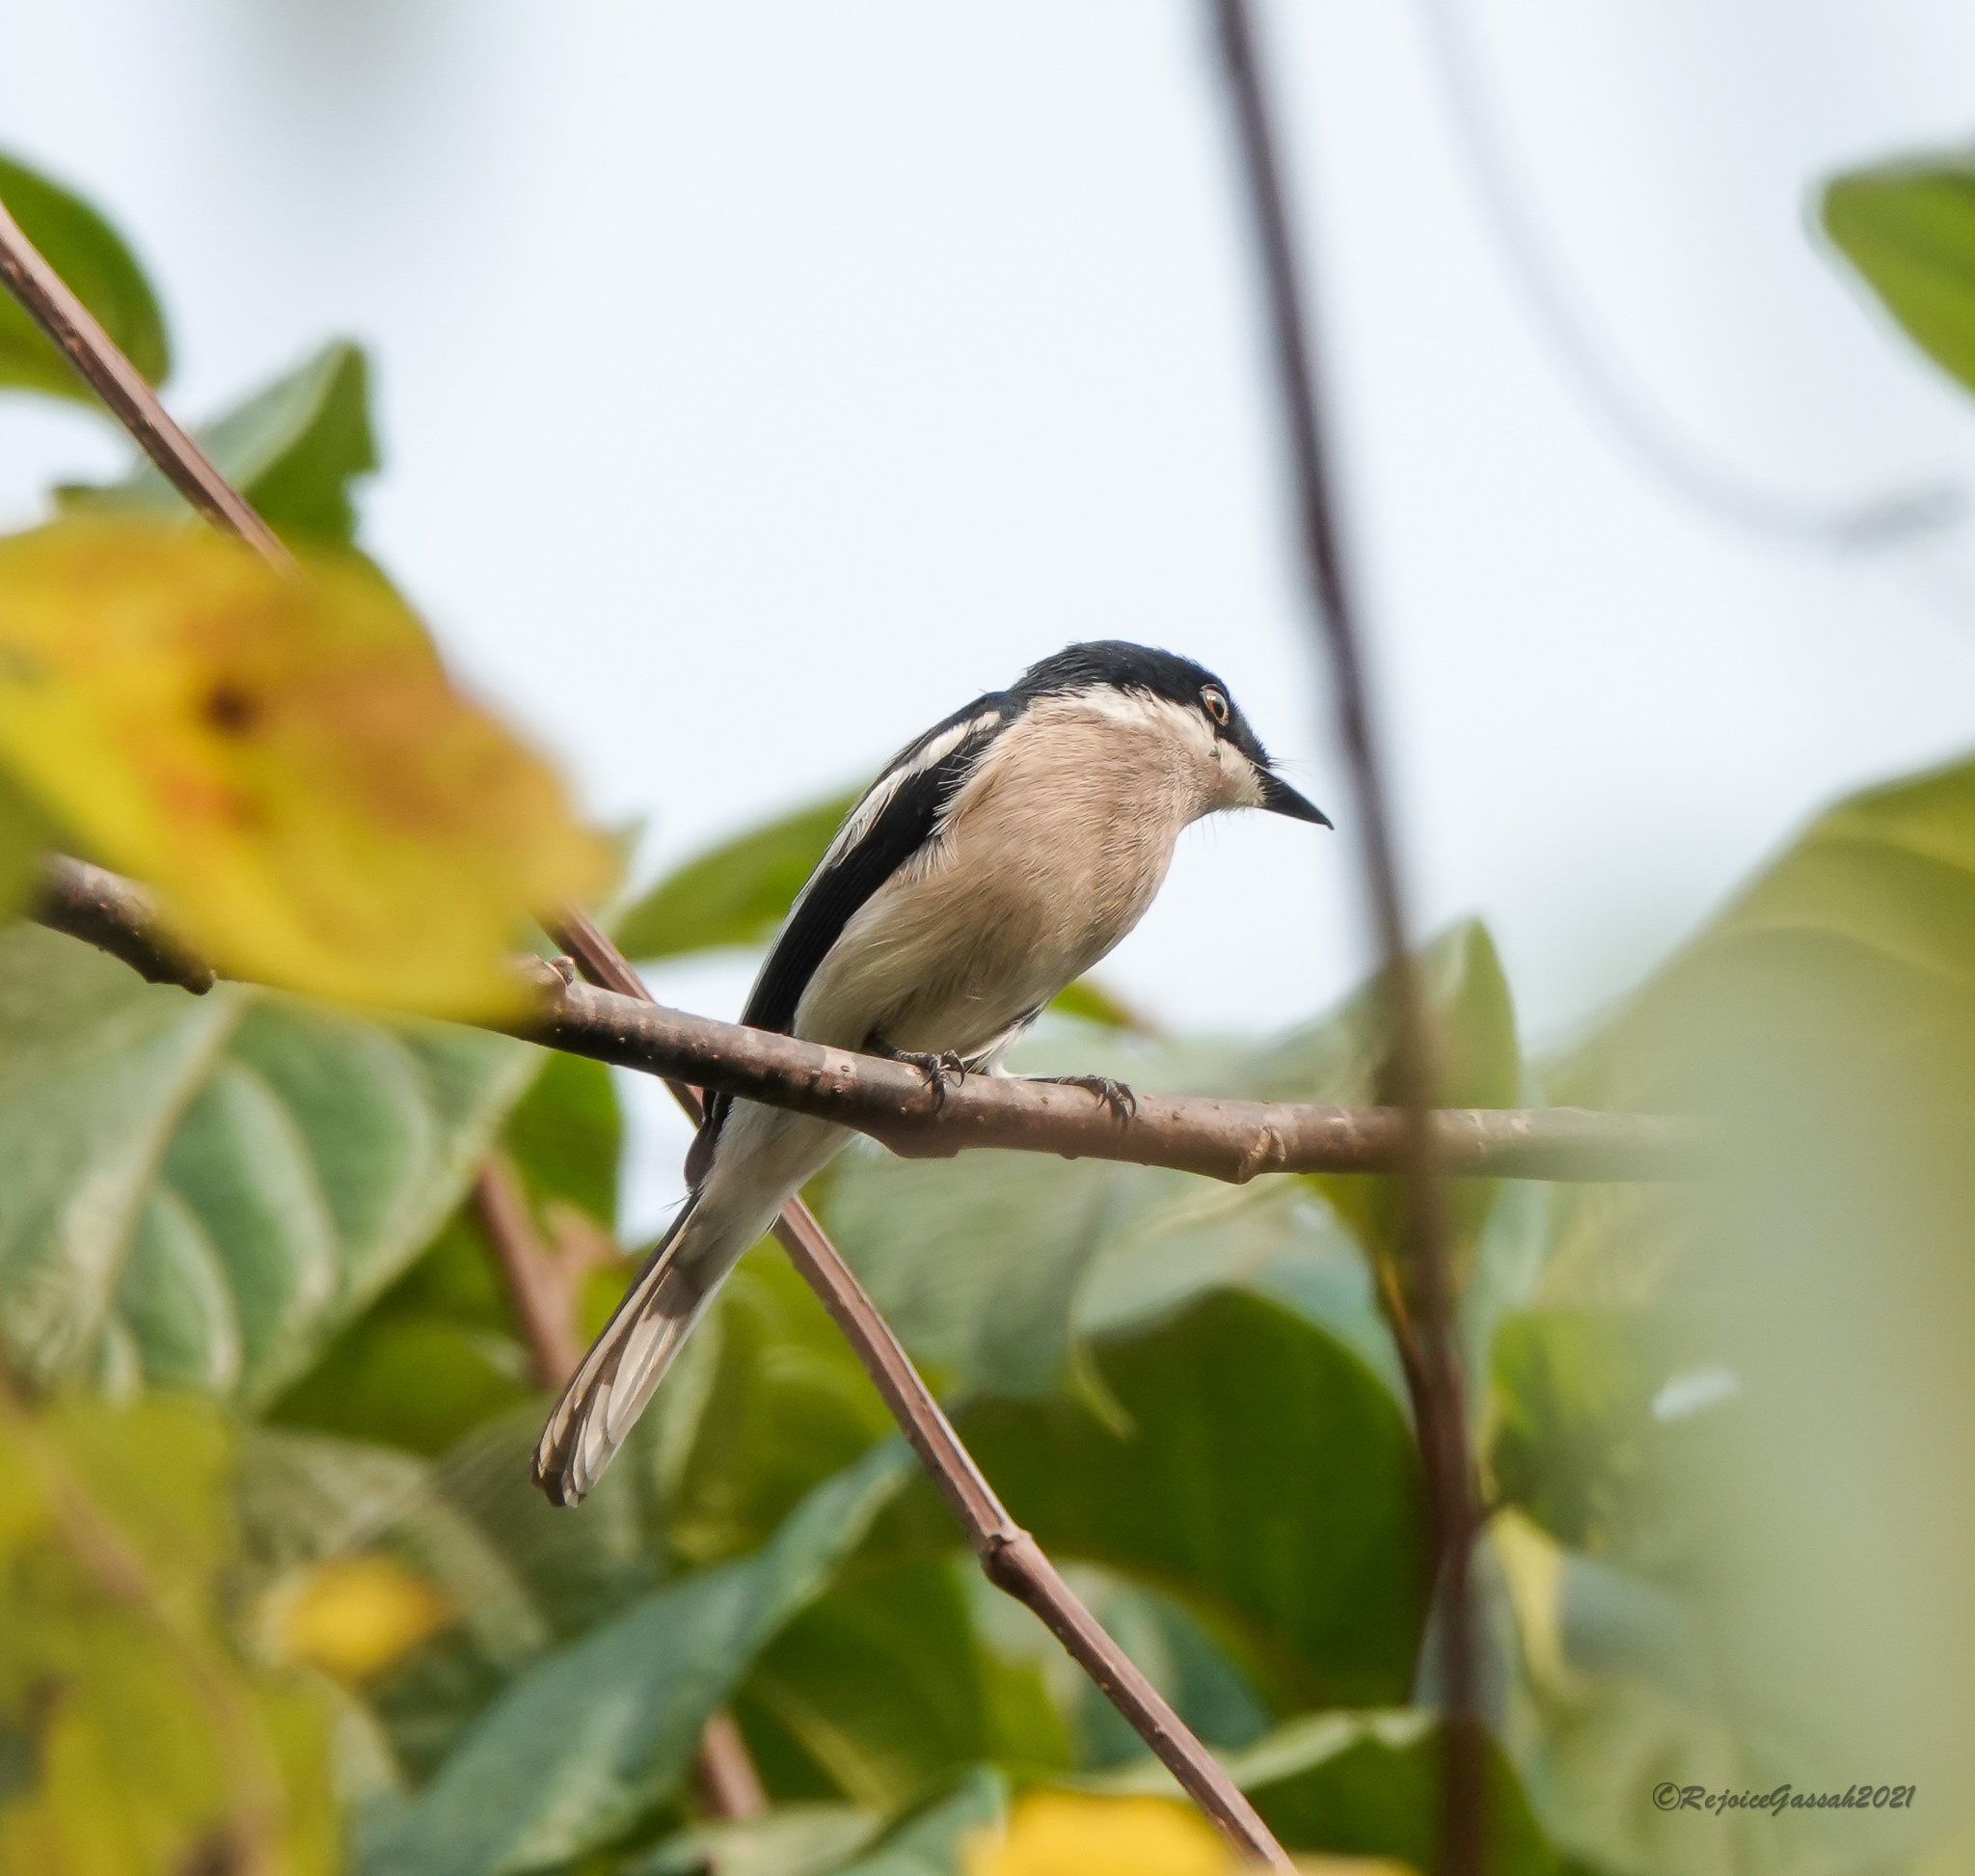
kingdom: Animalia
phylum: Chordata
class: Aves
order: Passeriformes
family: Tephrodornithidae
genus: Hemipus
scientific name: Hemipus picatus
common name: Bar-winged flycatcher-shrike
